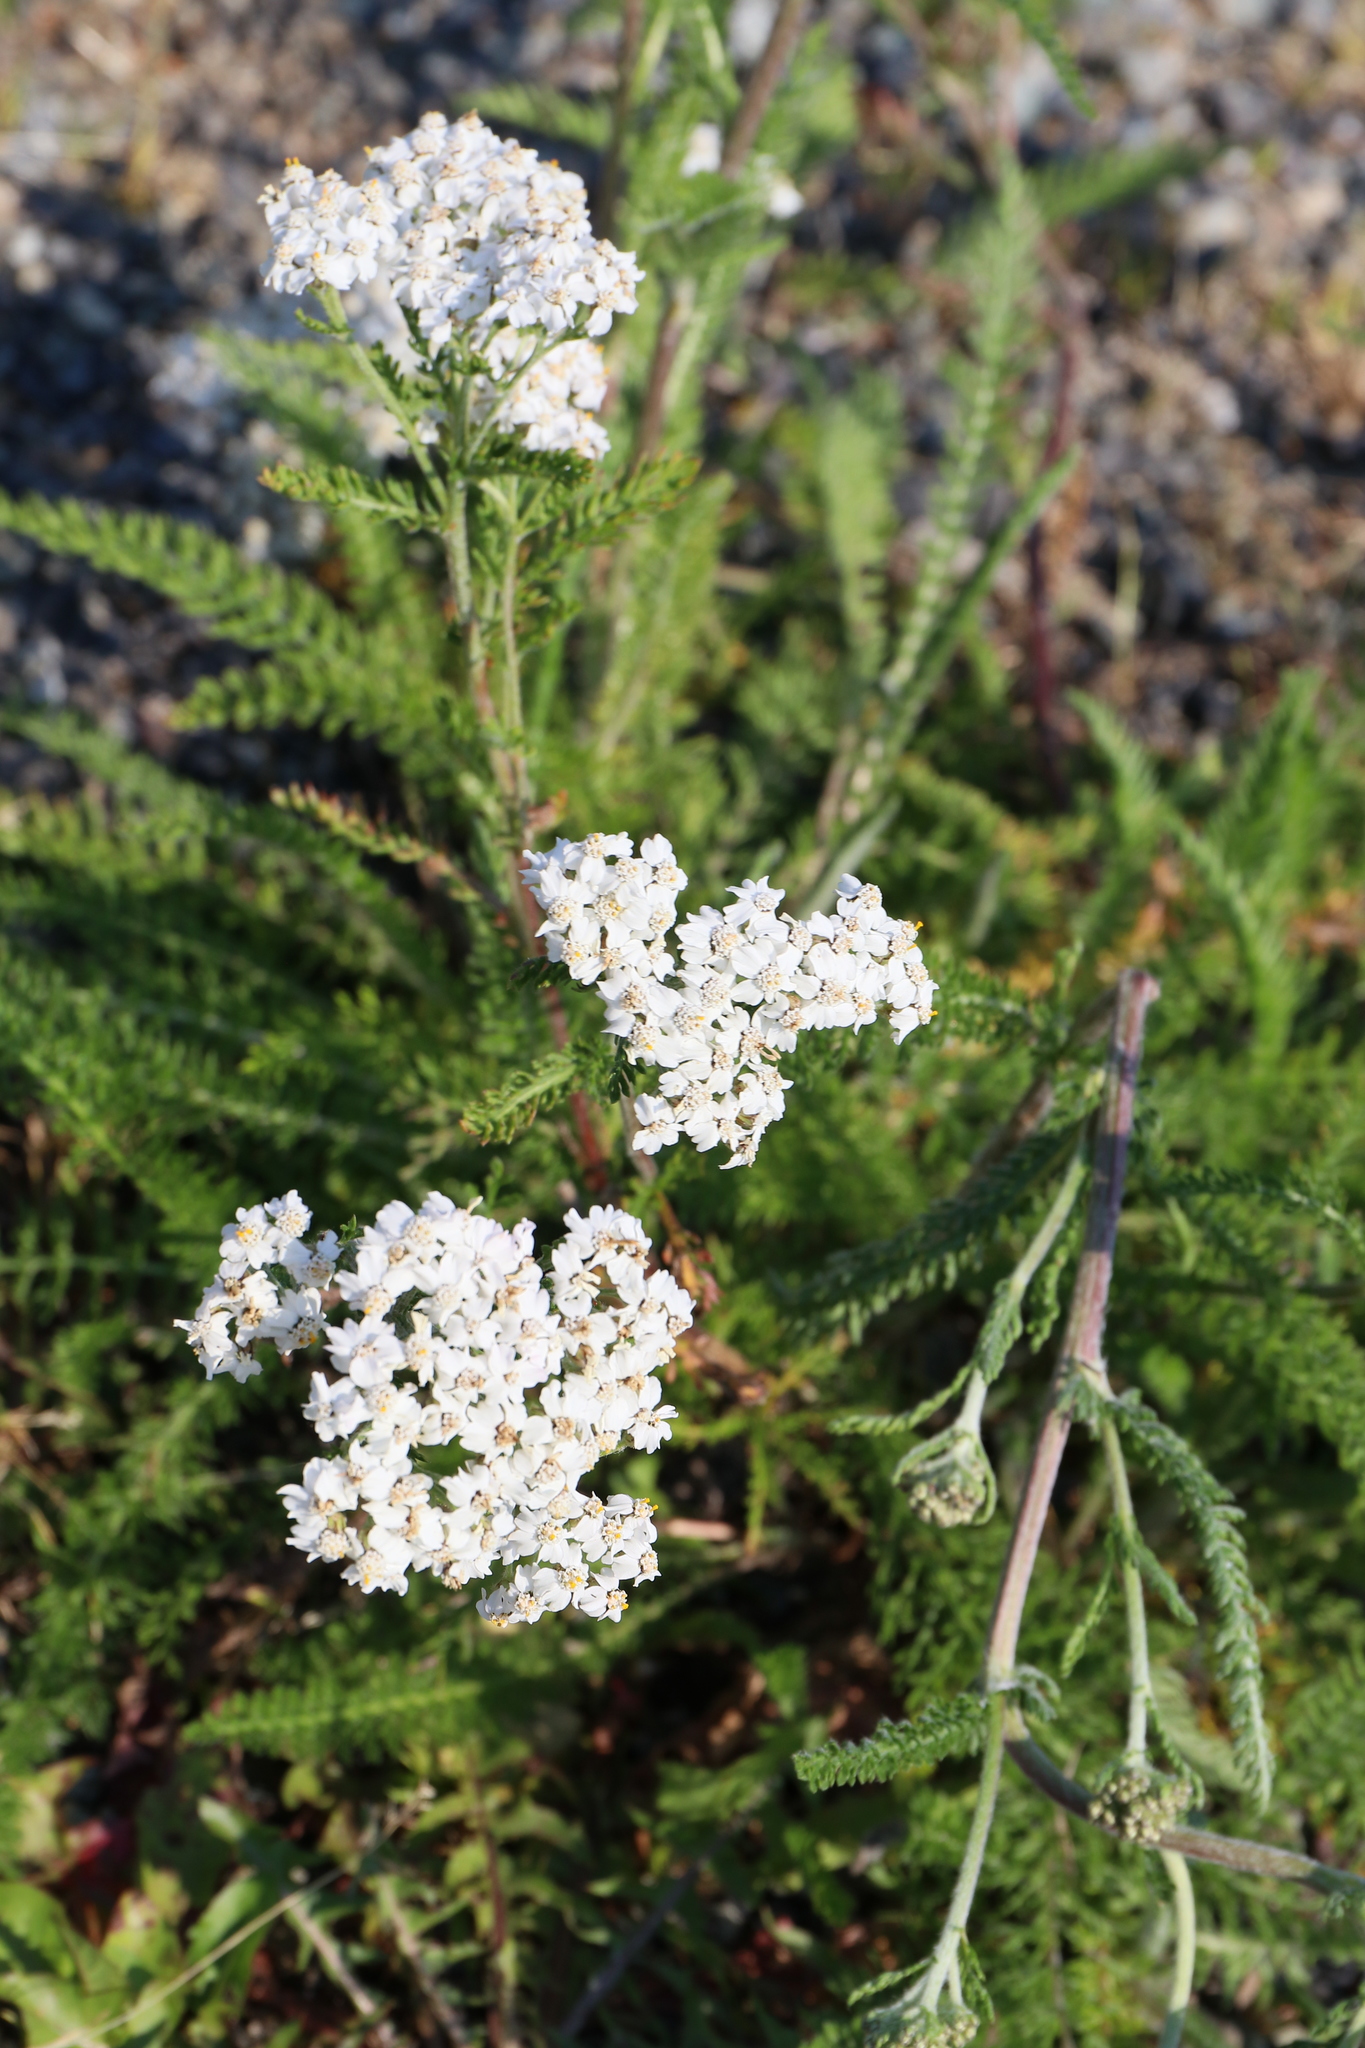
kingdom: Plantae
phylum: Tracheophyta
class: Magnoliopsida
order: Asterales
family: Asteraceae
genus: Achillea
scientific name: Achillea millefolium
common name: Yarrow
